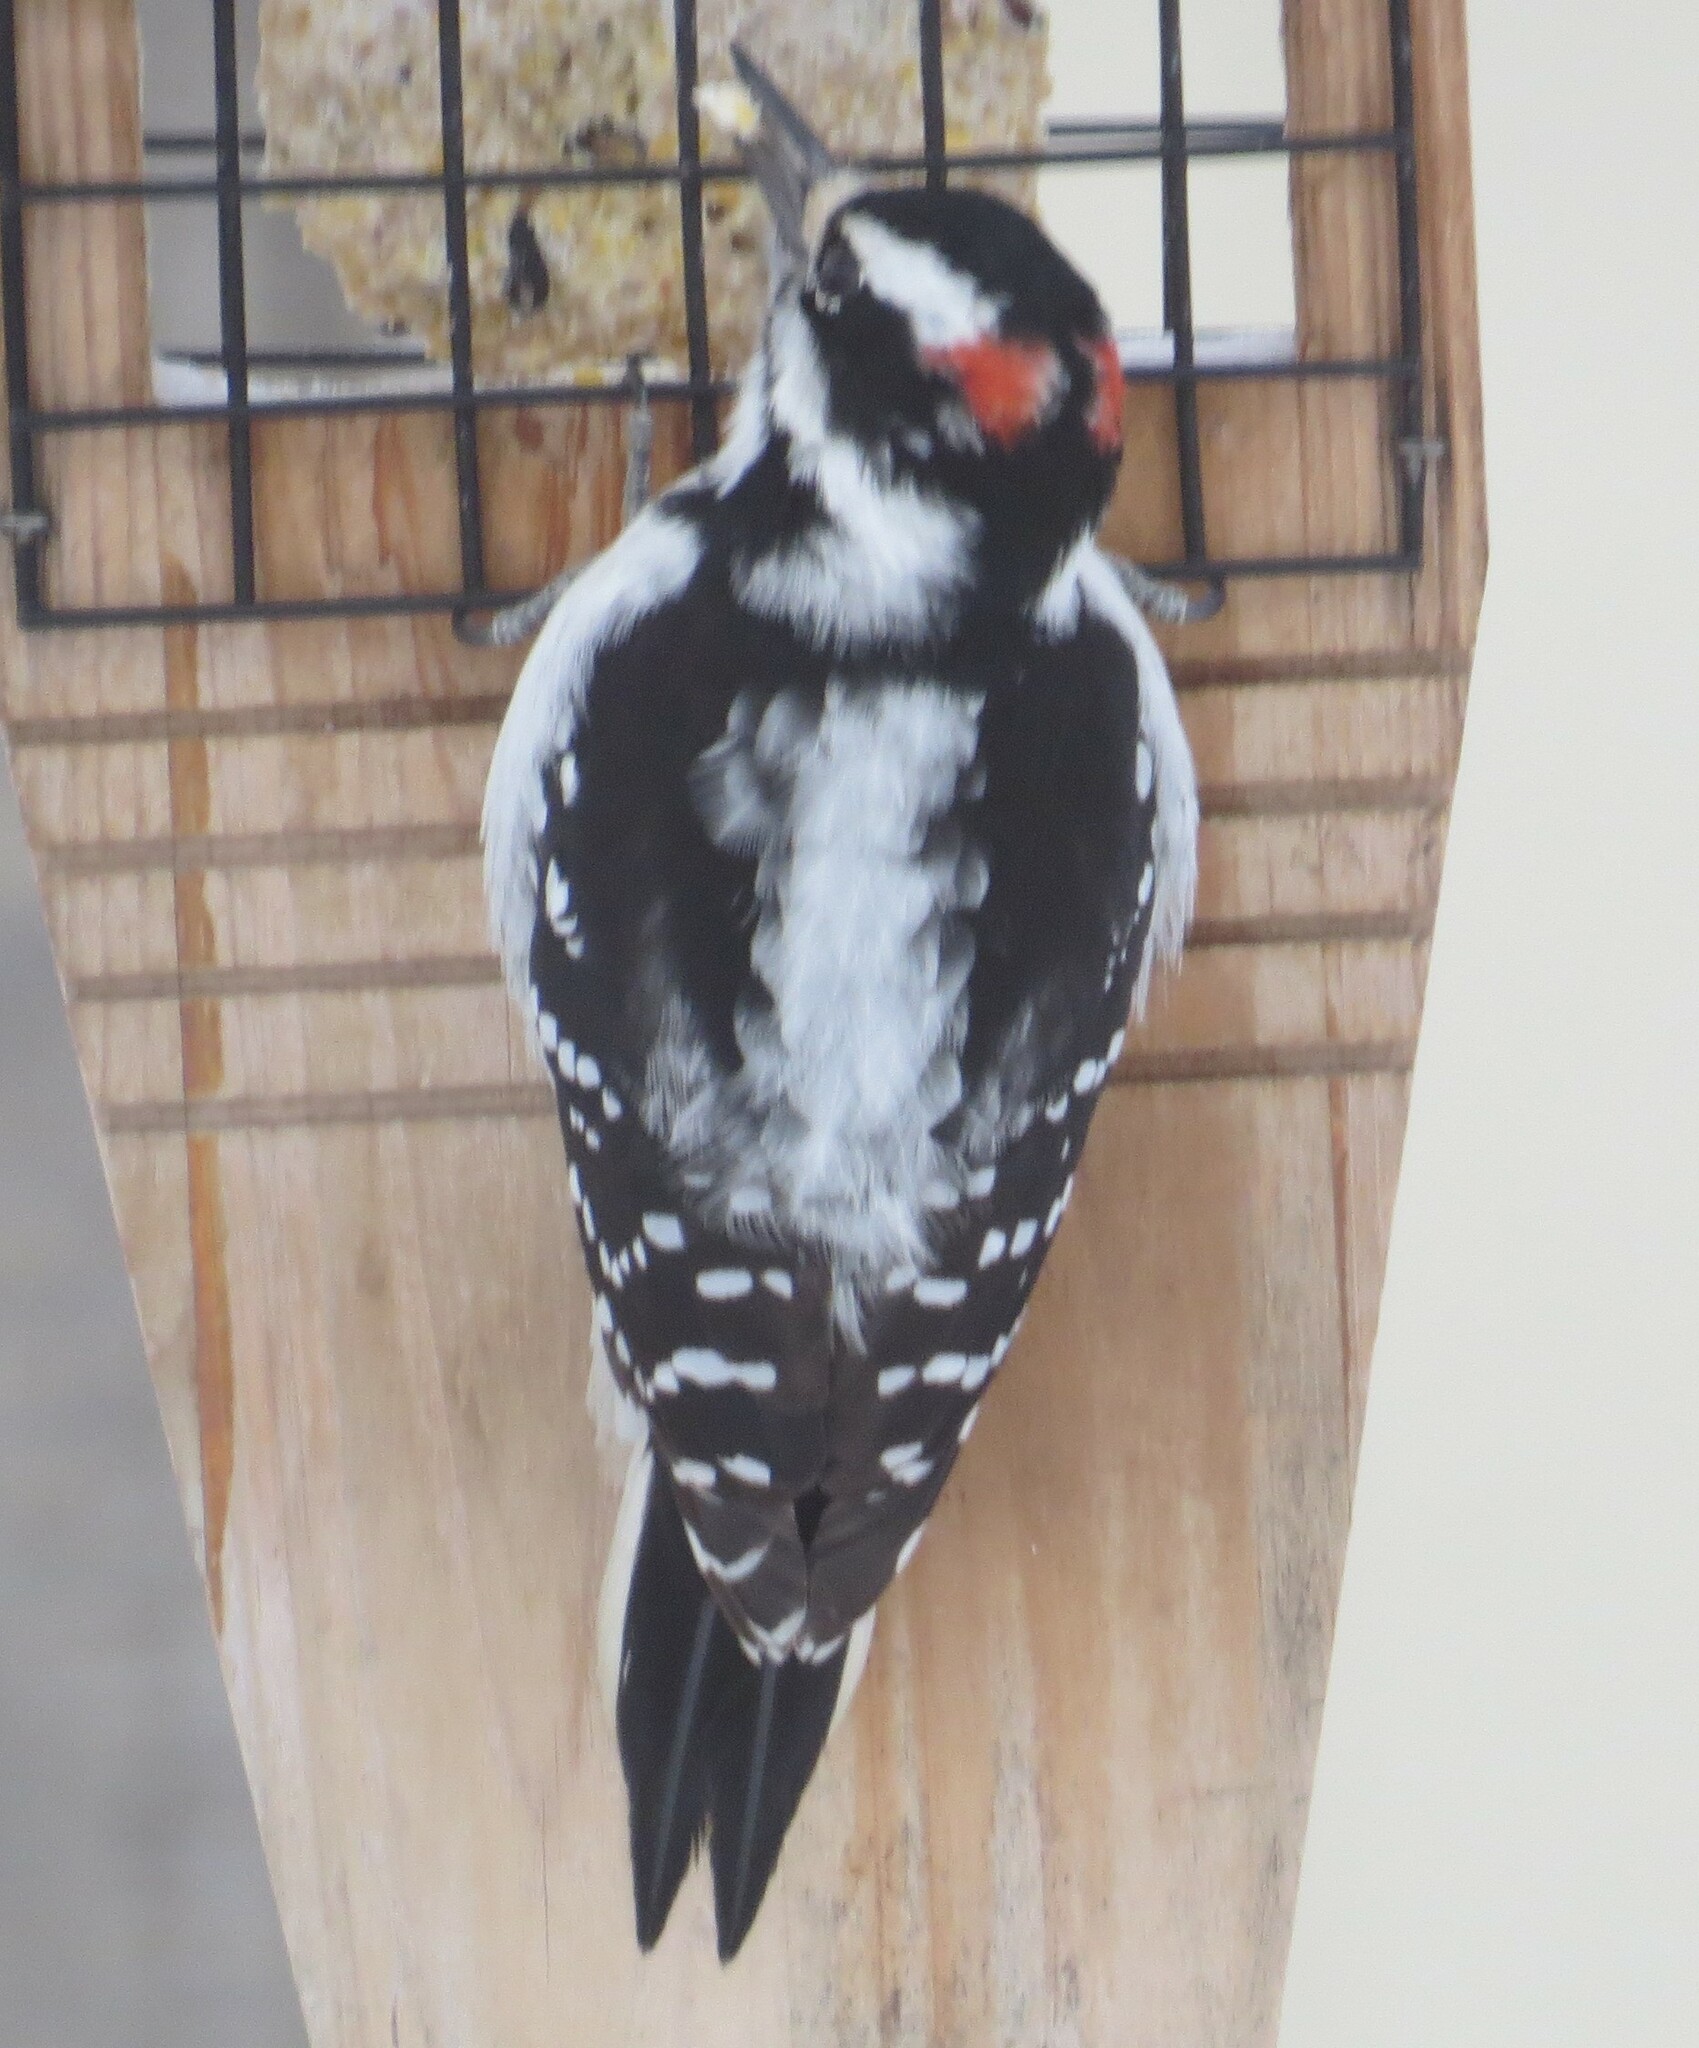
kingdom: Animalia
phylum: Chordata
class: Aves
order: Piciformes
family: Picidae
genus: Leuconotopicus
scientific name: Leuconotopicus villosus
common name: Hairy woodpecker
